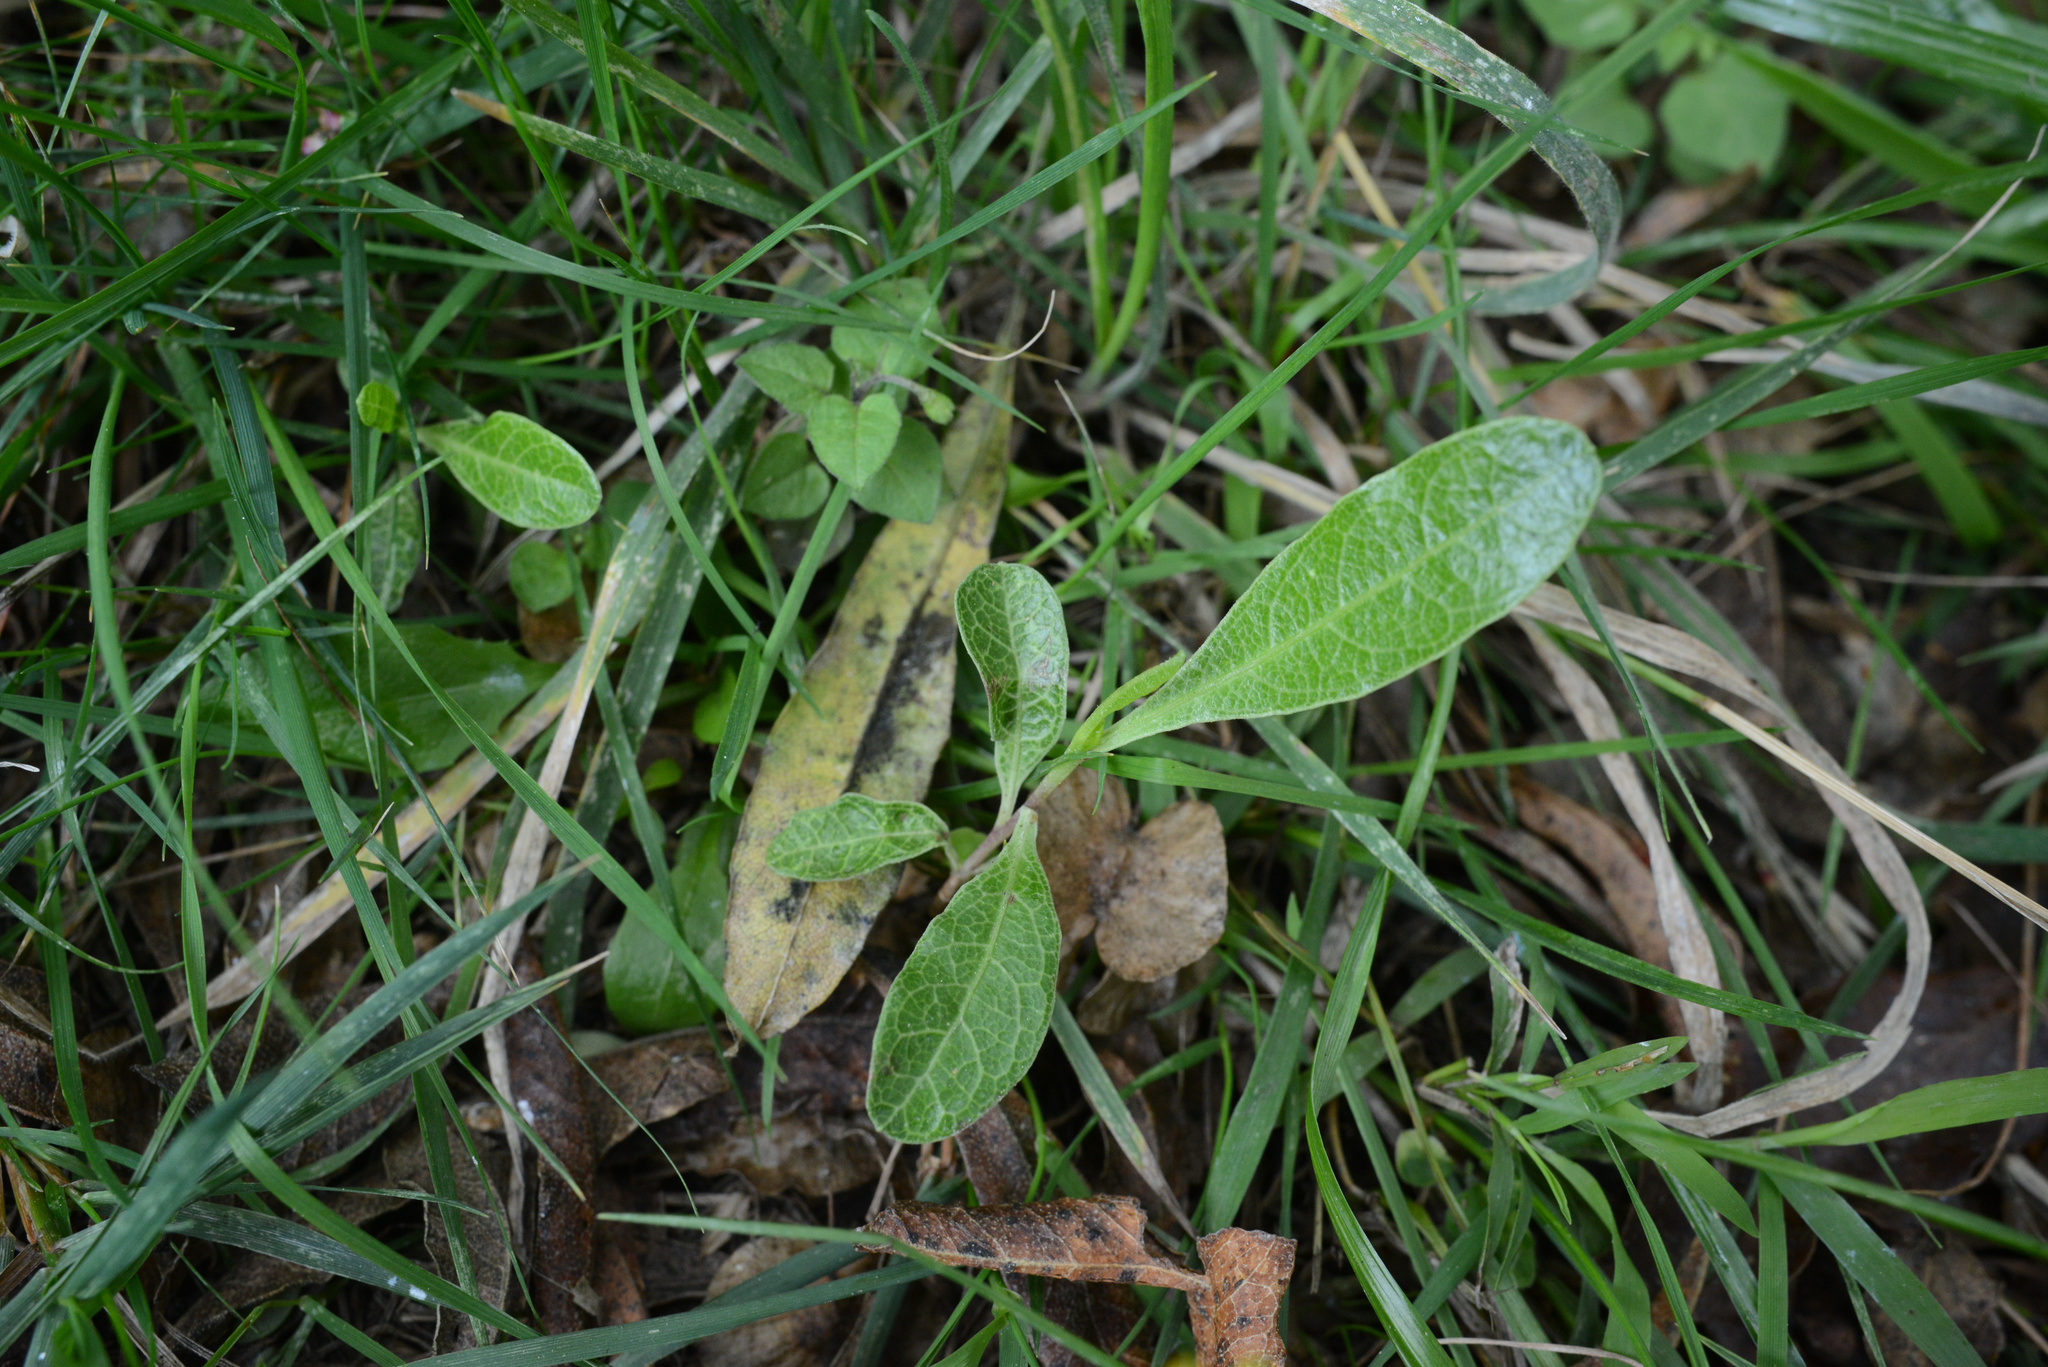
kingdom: Plantae
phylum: Tracheophyta
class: Magnoliopsida
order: Sapindales
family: Sapindaceae
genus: Dodonaea
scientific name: Dodonaea viscosa
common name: Hopbush
